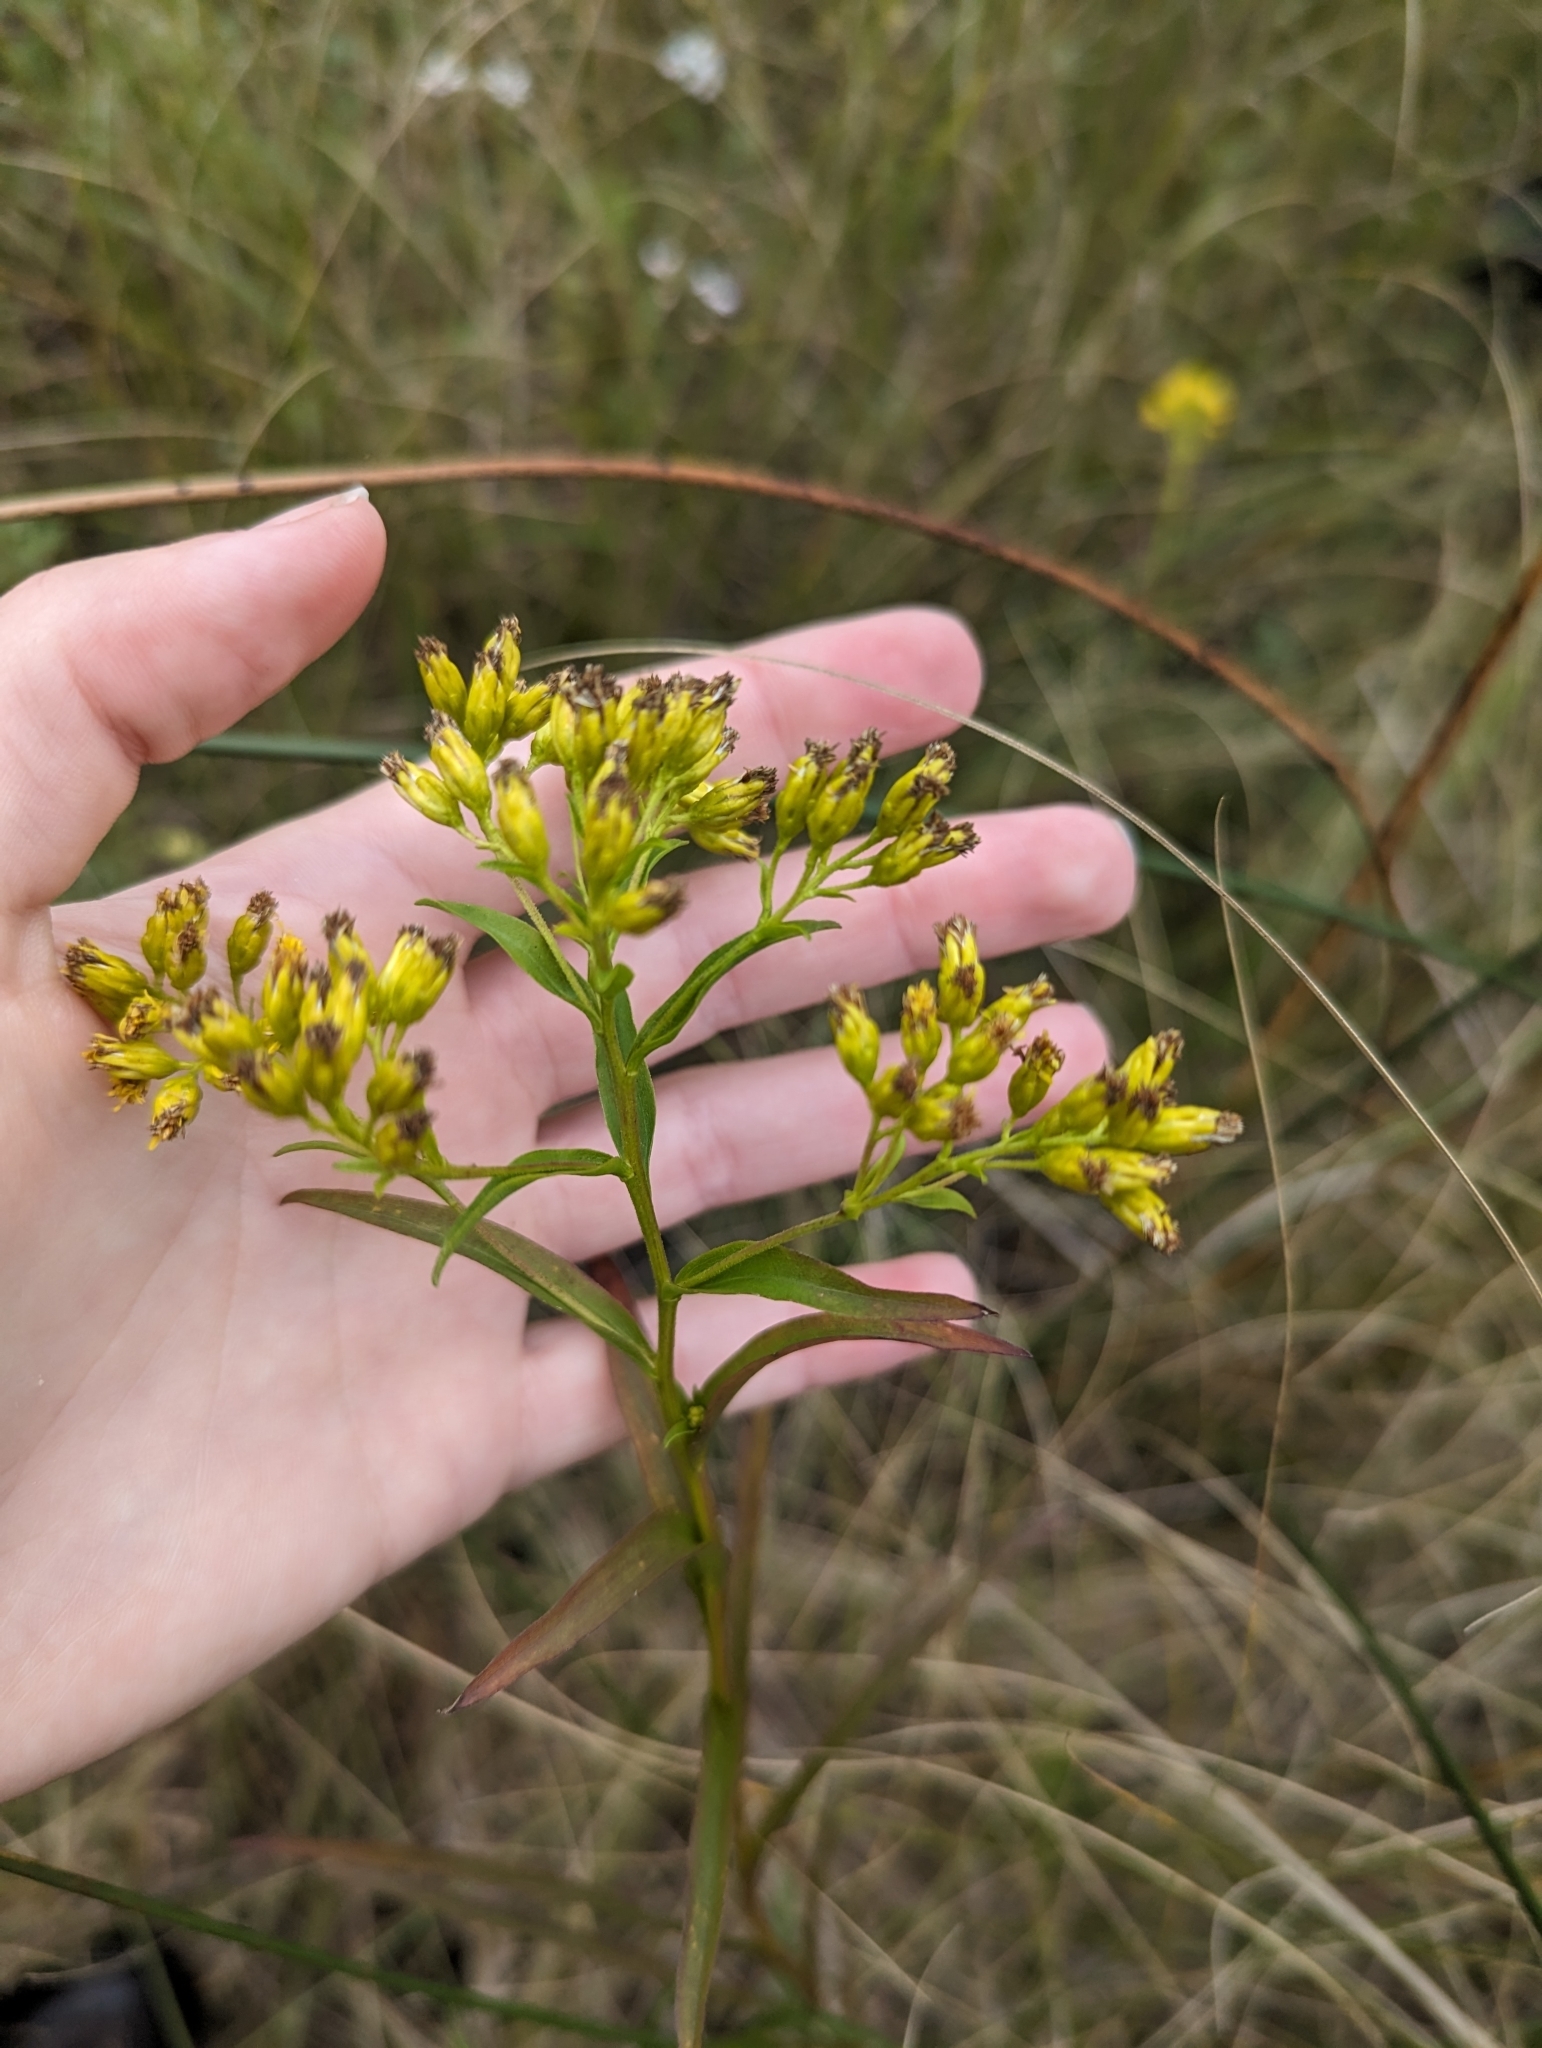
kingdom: Plantae
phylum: Tracheophyta
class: Magnoliopsida
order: Asterales
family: Asteraceae
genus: Solidago
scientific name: Solidago riddellii
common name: Riddell's goldenrod
